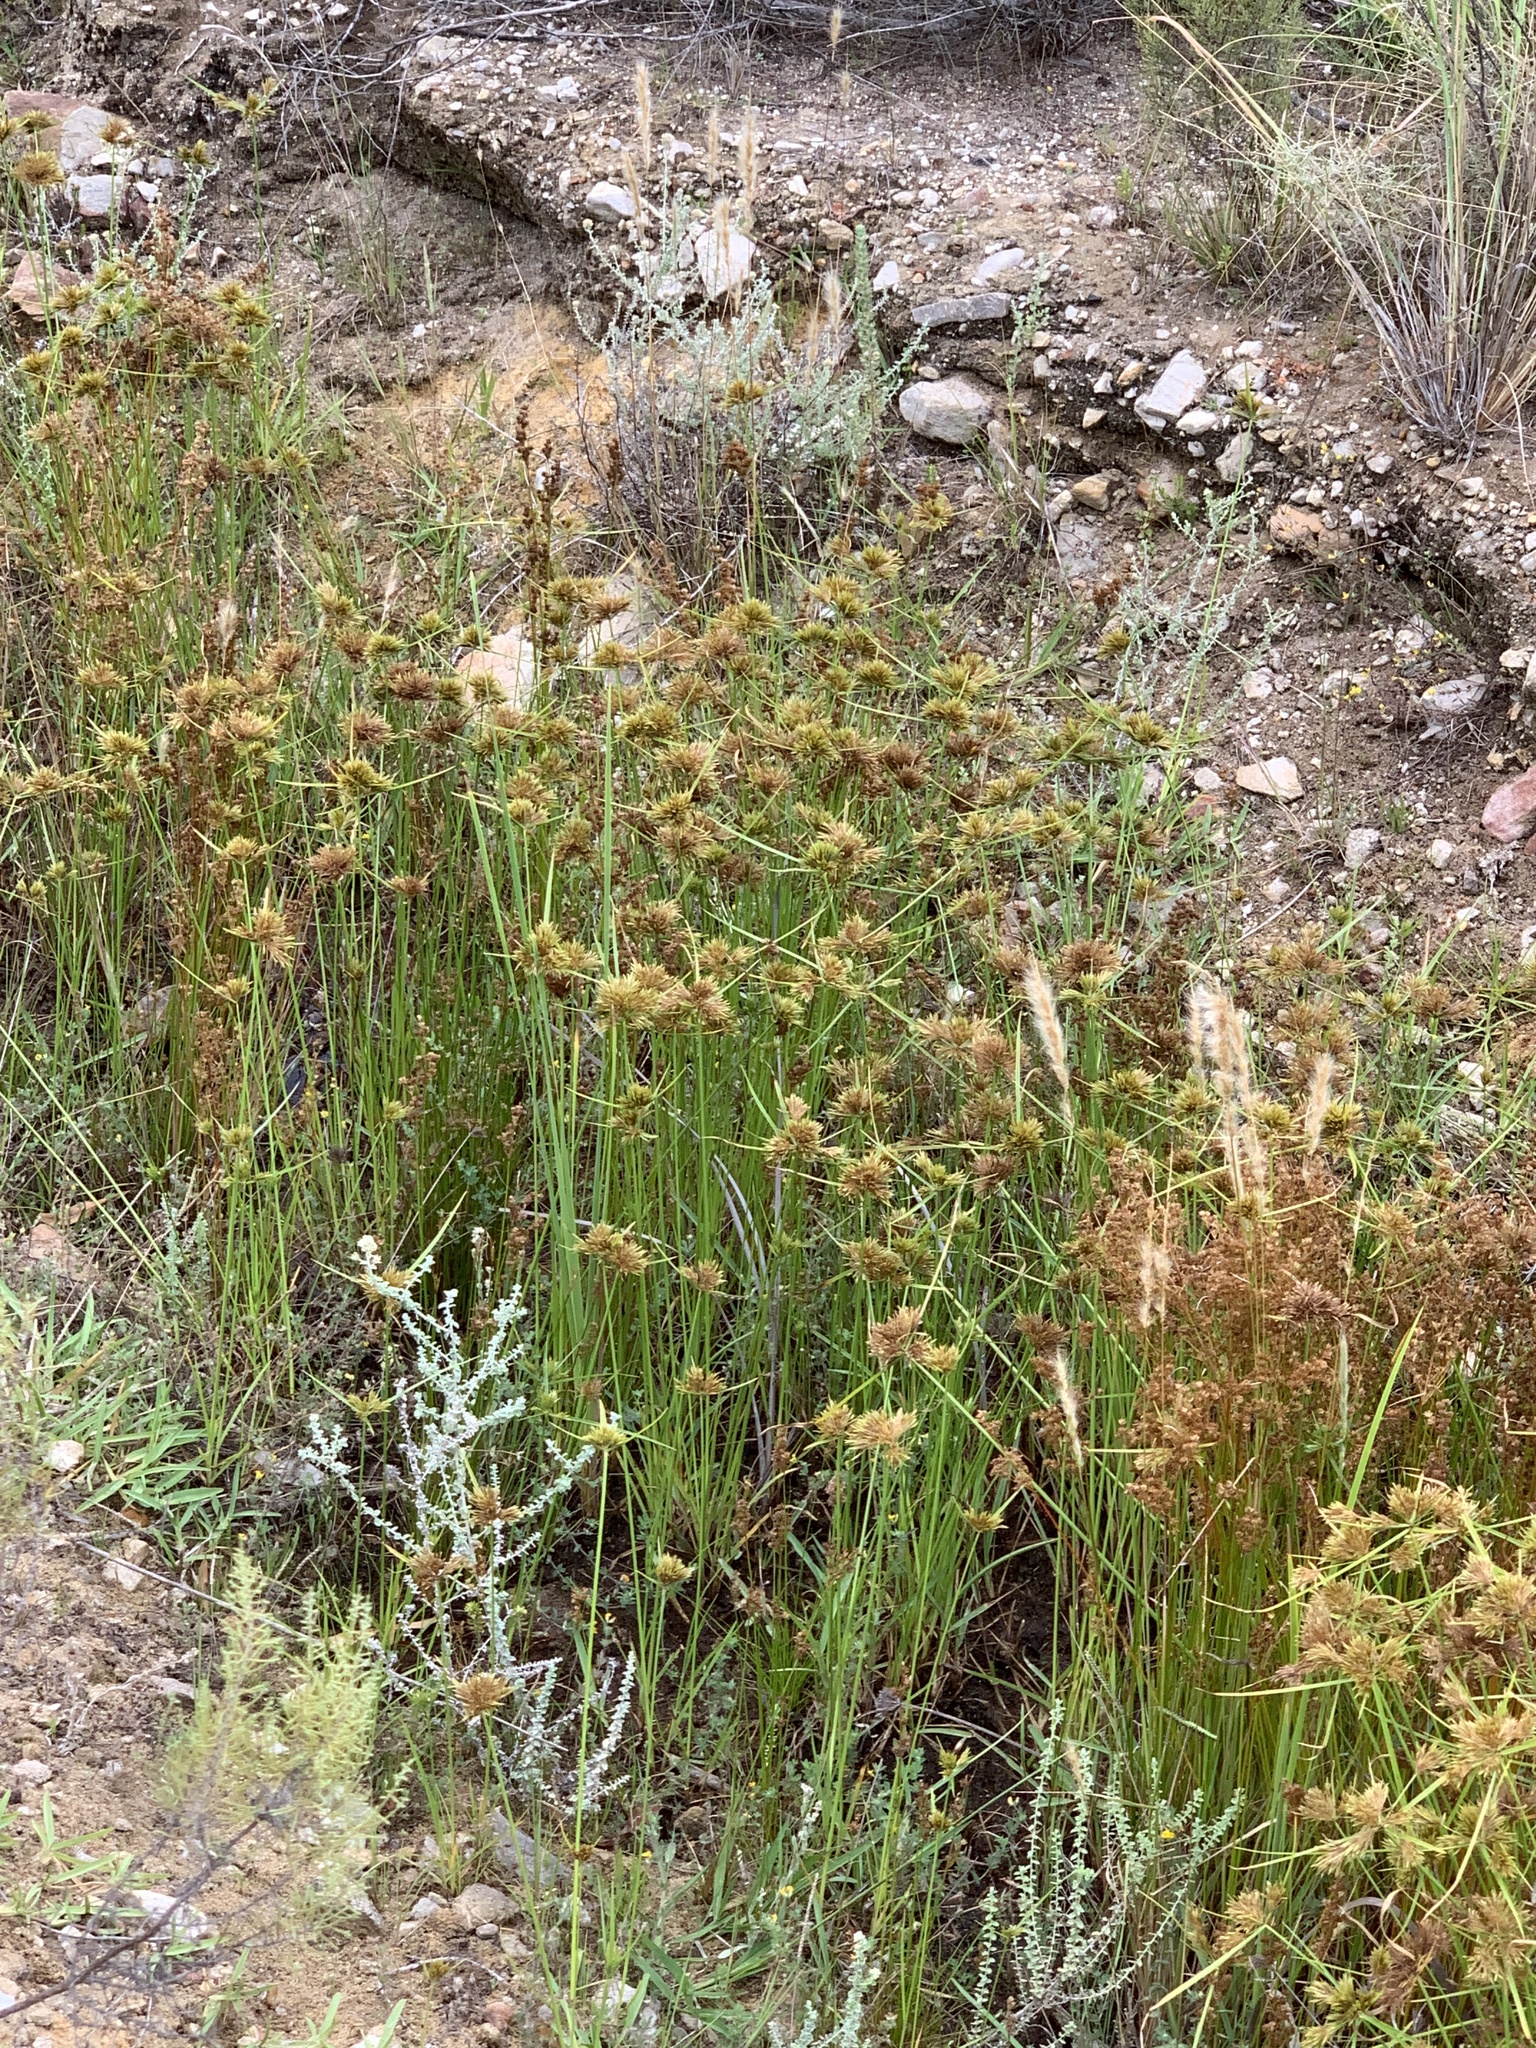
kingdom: Plantae
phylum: Tracheophyta
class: Liliopsida
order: Poales
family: Cyperaceae
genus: Cyperus
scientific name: Cyperus polystachyos
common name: Bunchy flat sedge
